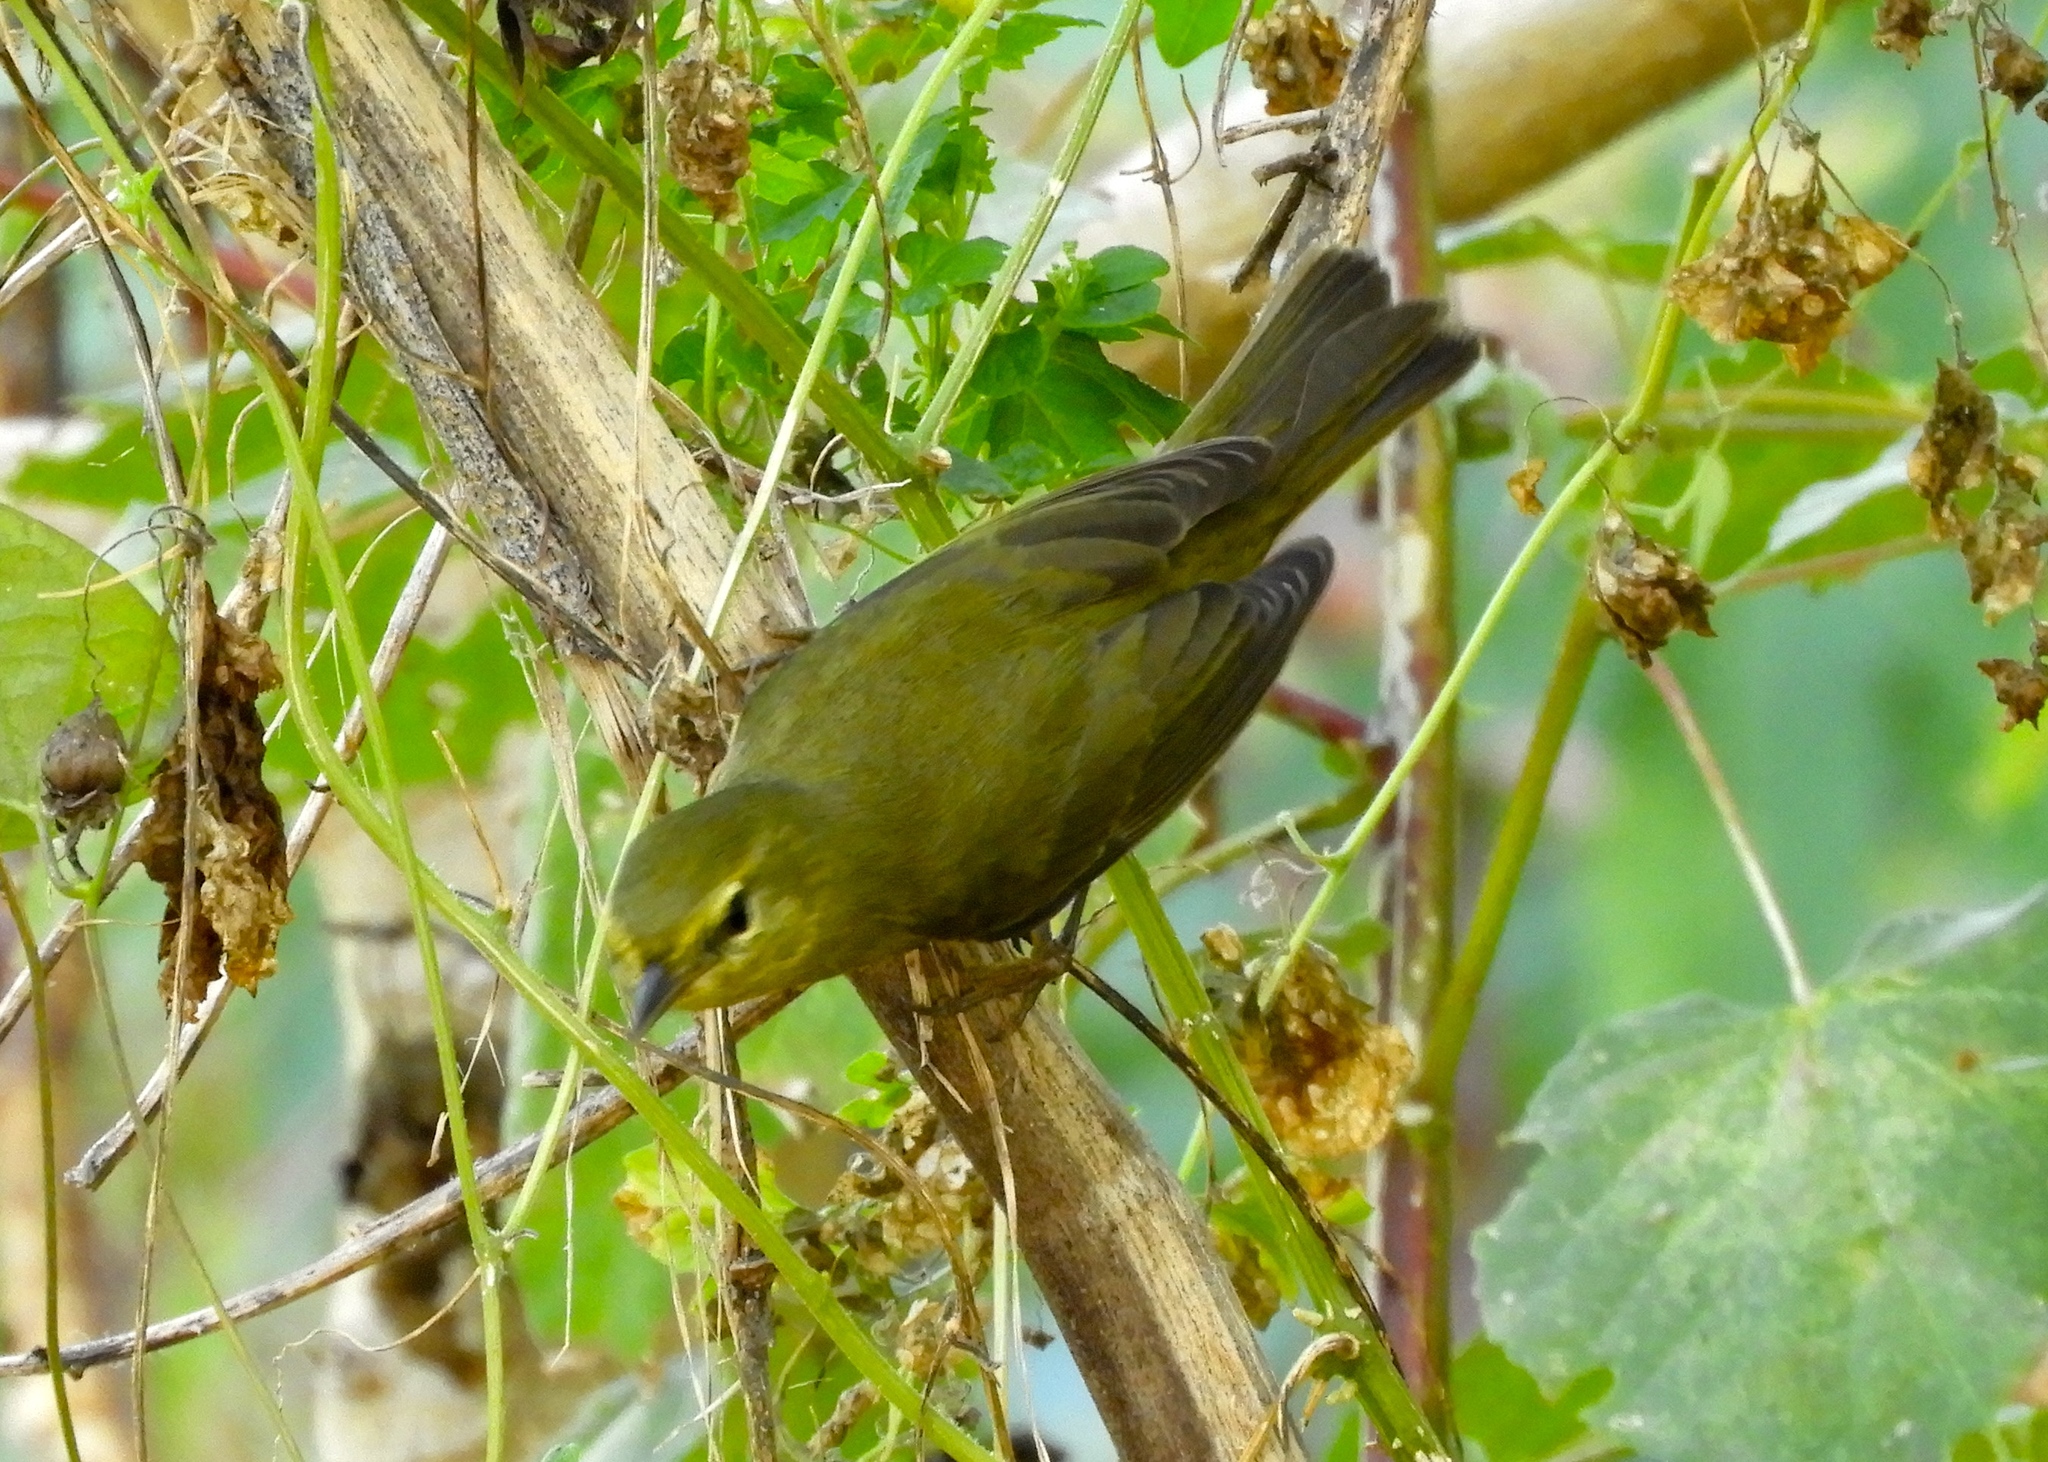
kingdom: Animalia
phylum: Chordata
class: Aves
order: Passeriformes
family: Parulidae
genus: Leiothlypis
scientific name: Leiothlypis celata
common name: Orange-crowned warbler
